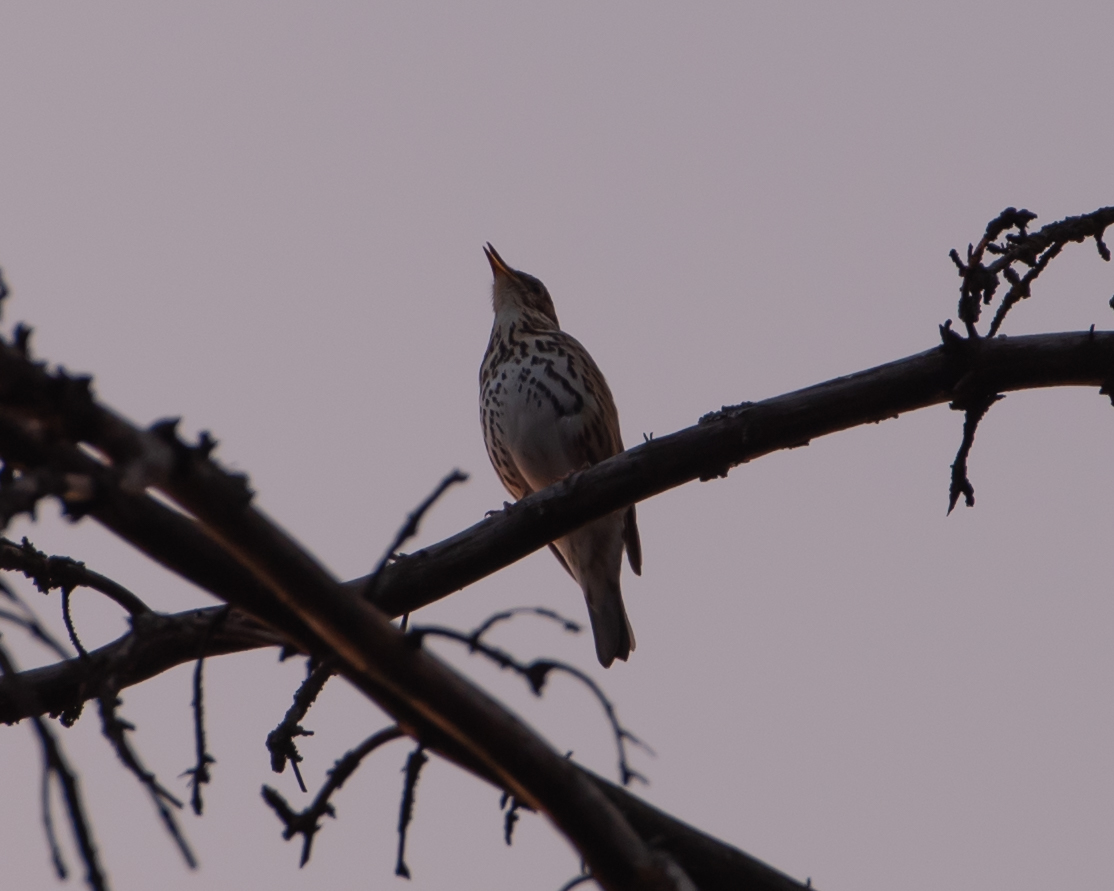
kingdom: Animalia
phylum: Chordata
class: Aves
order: Passeriformes
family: Turdidae
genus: Turdus
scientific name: Turdus philomelos
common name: Song thrush
